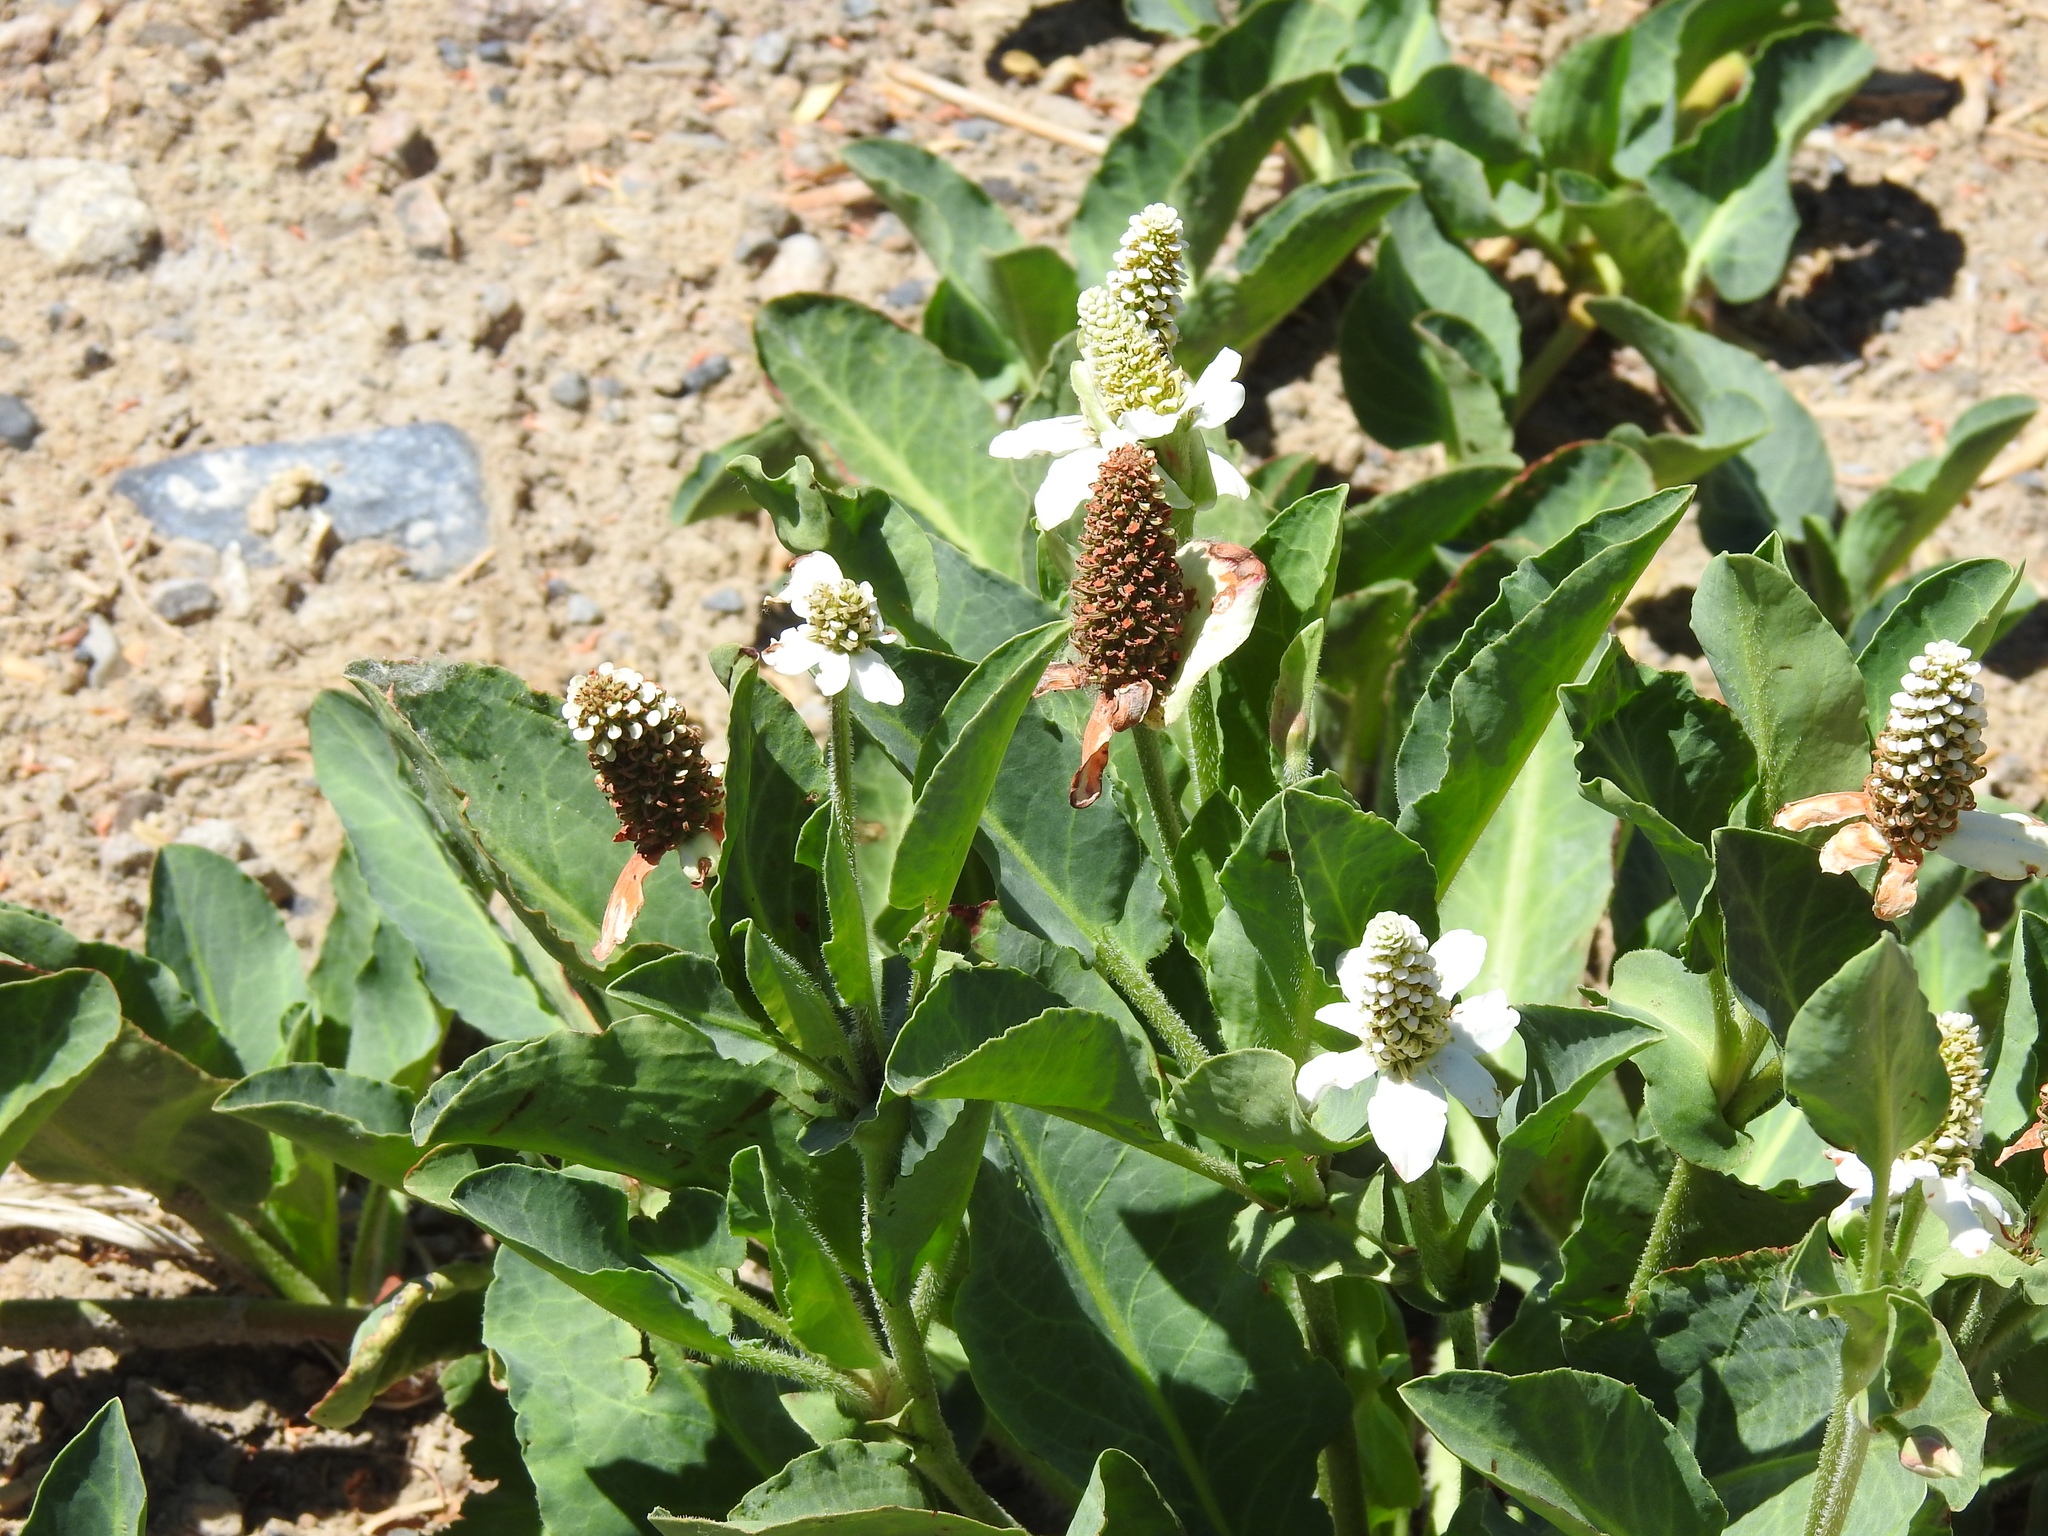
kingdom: Plantae
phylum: Tracheophyta
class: Magnoliopsida
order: Piperales
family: Saururaceae
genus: Anemopsis
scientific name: Anemopsis californica
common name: Apache-beads
